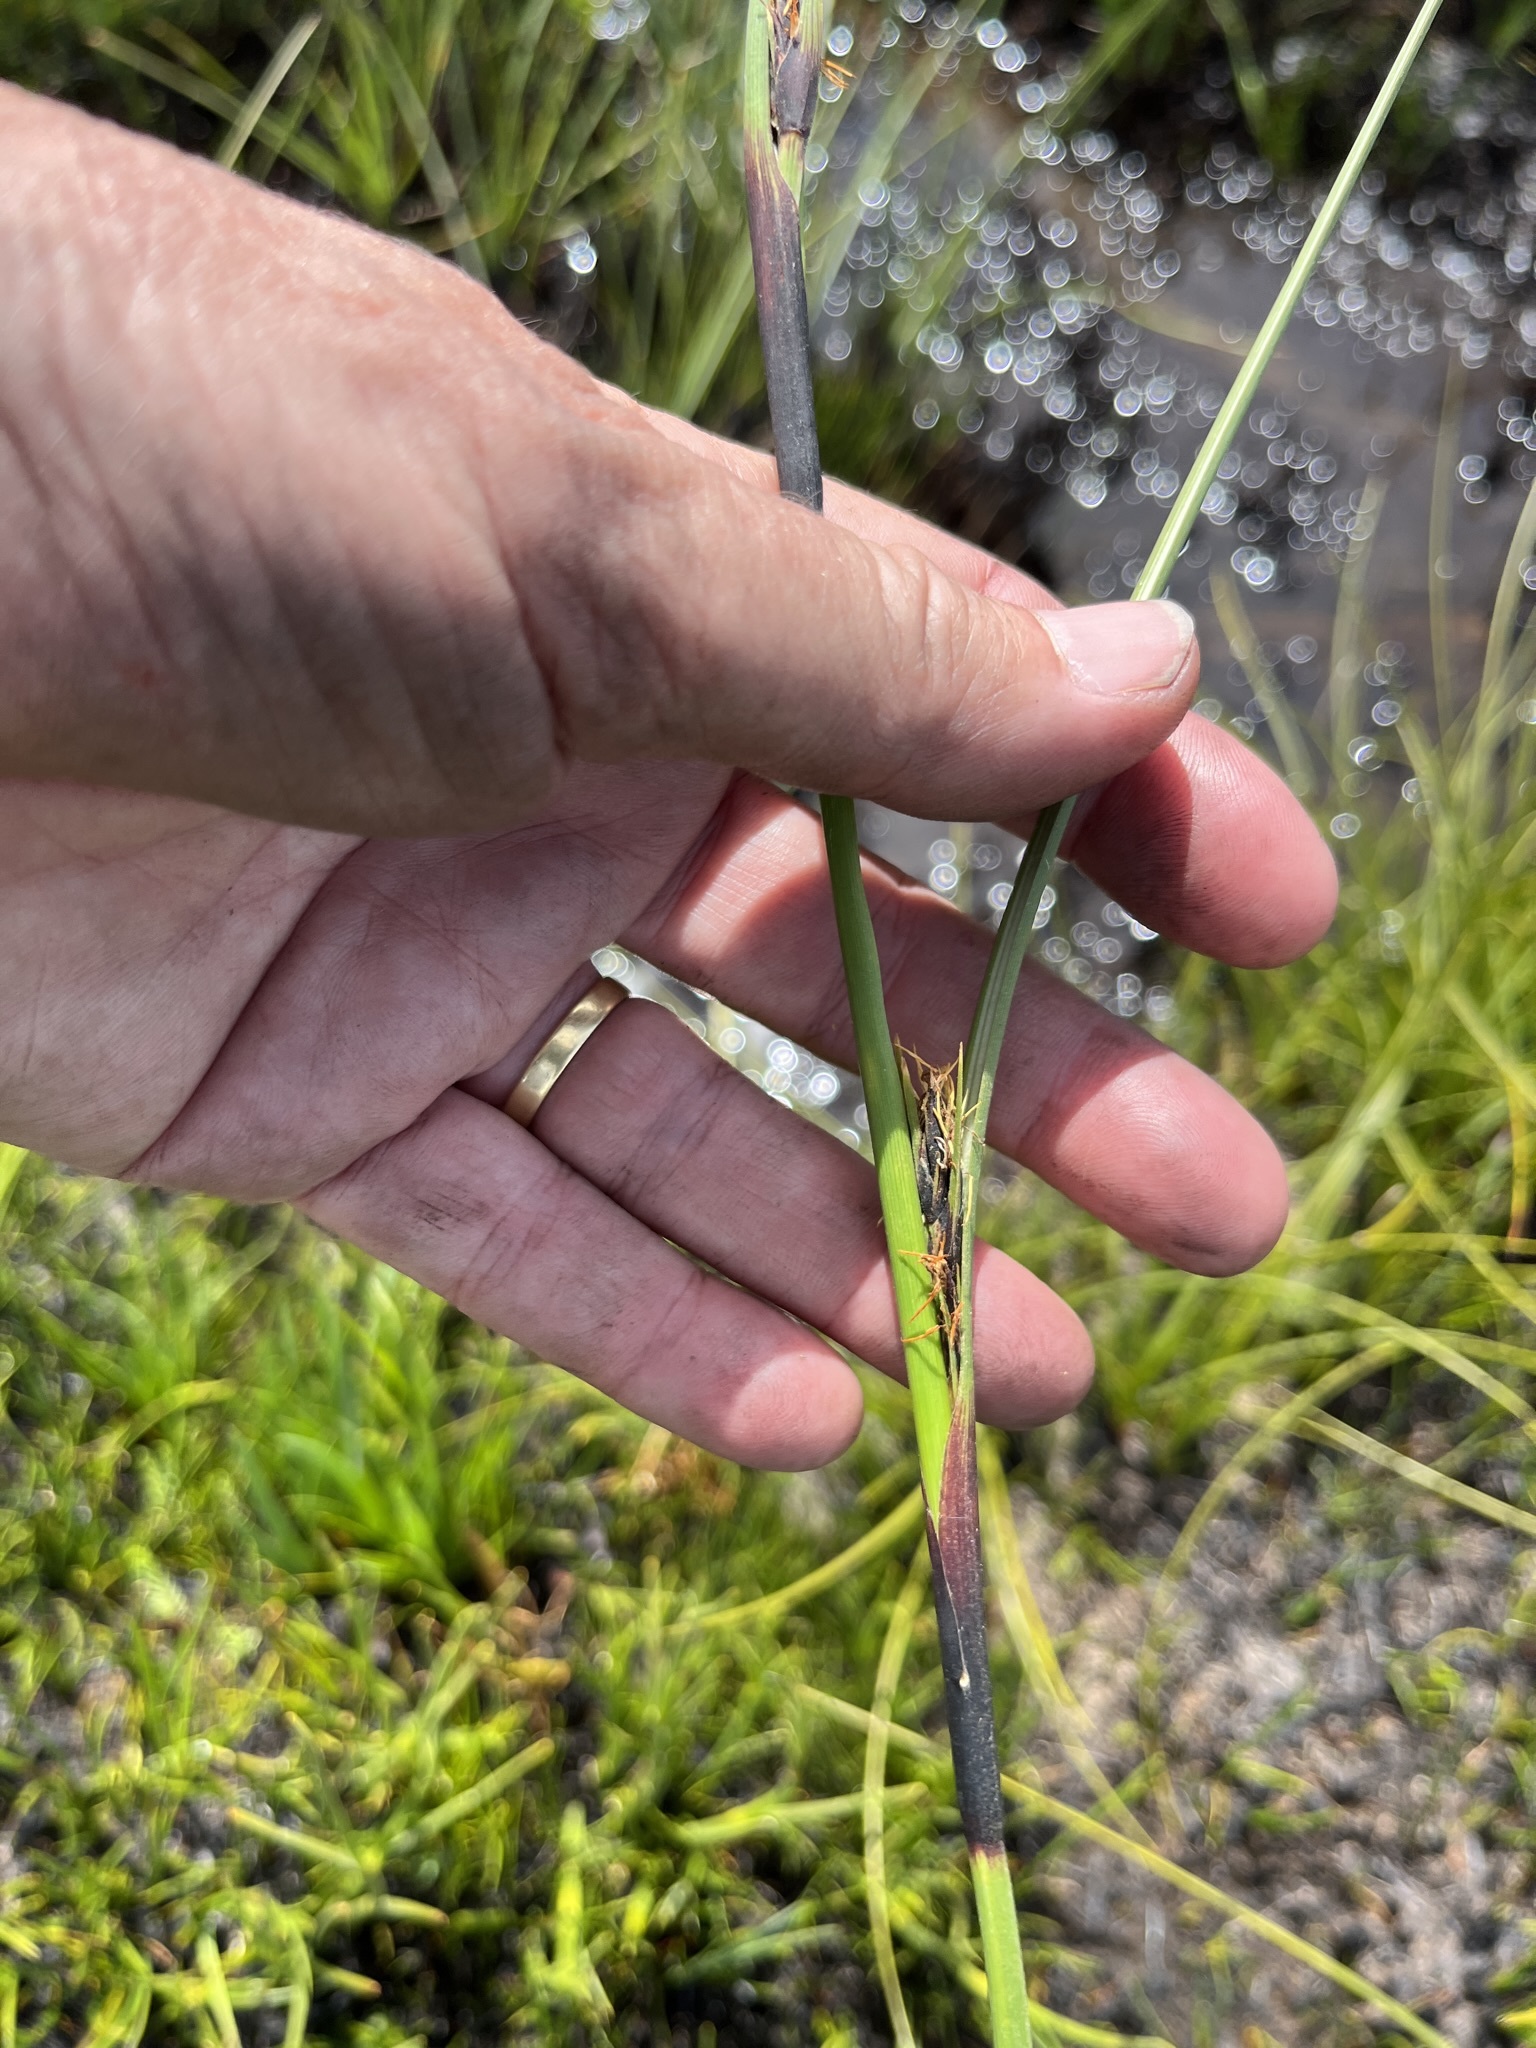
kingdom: Plantae
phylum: Tracheophyta
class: Liliopsida
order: Poales
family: Cyperaceae
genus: Cyathocoma
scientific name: Cyathocoma hexandra
